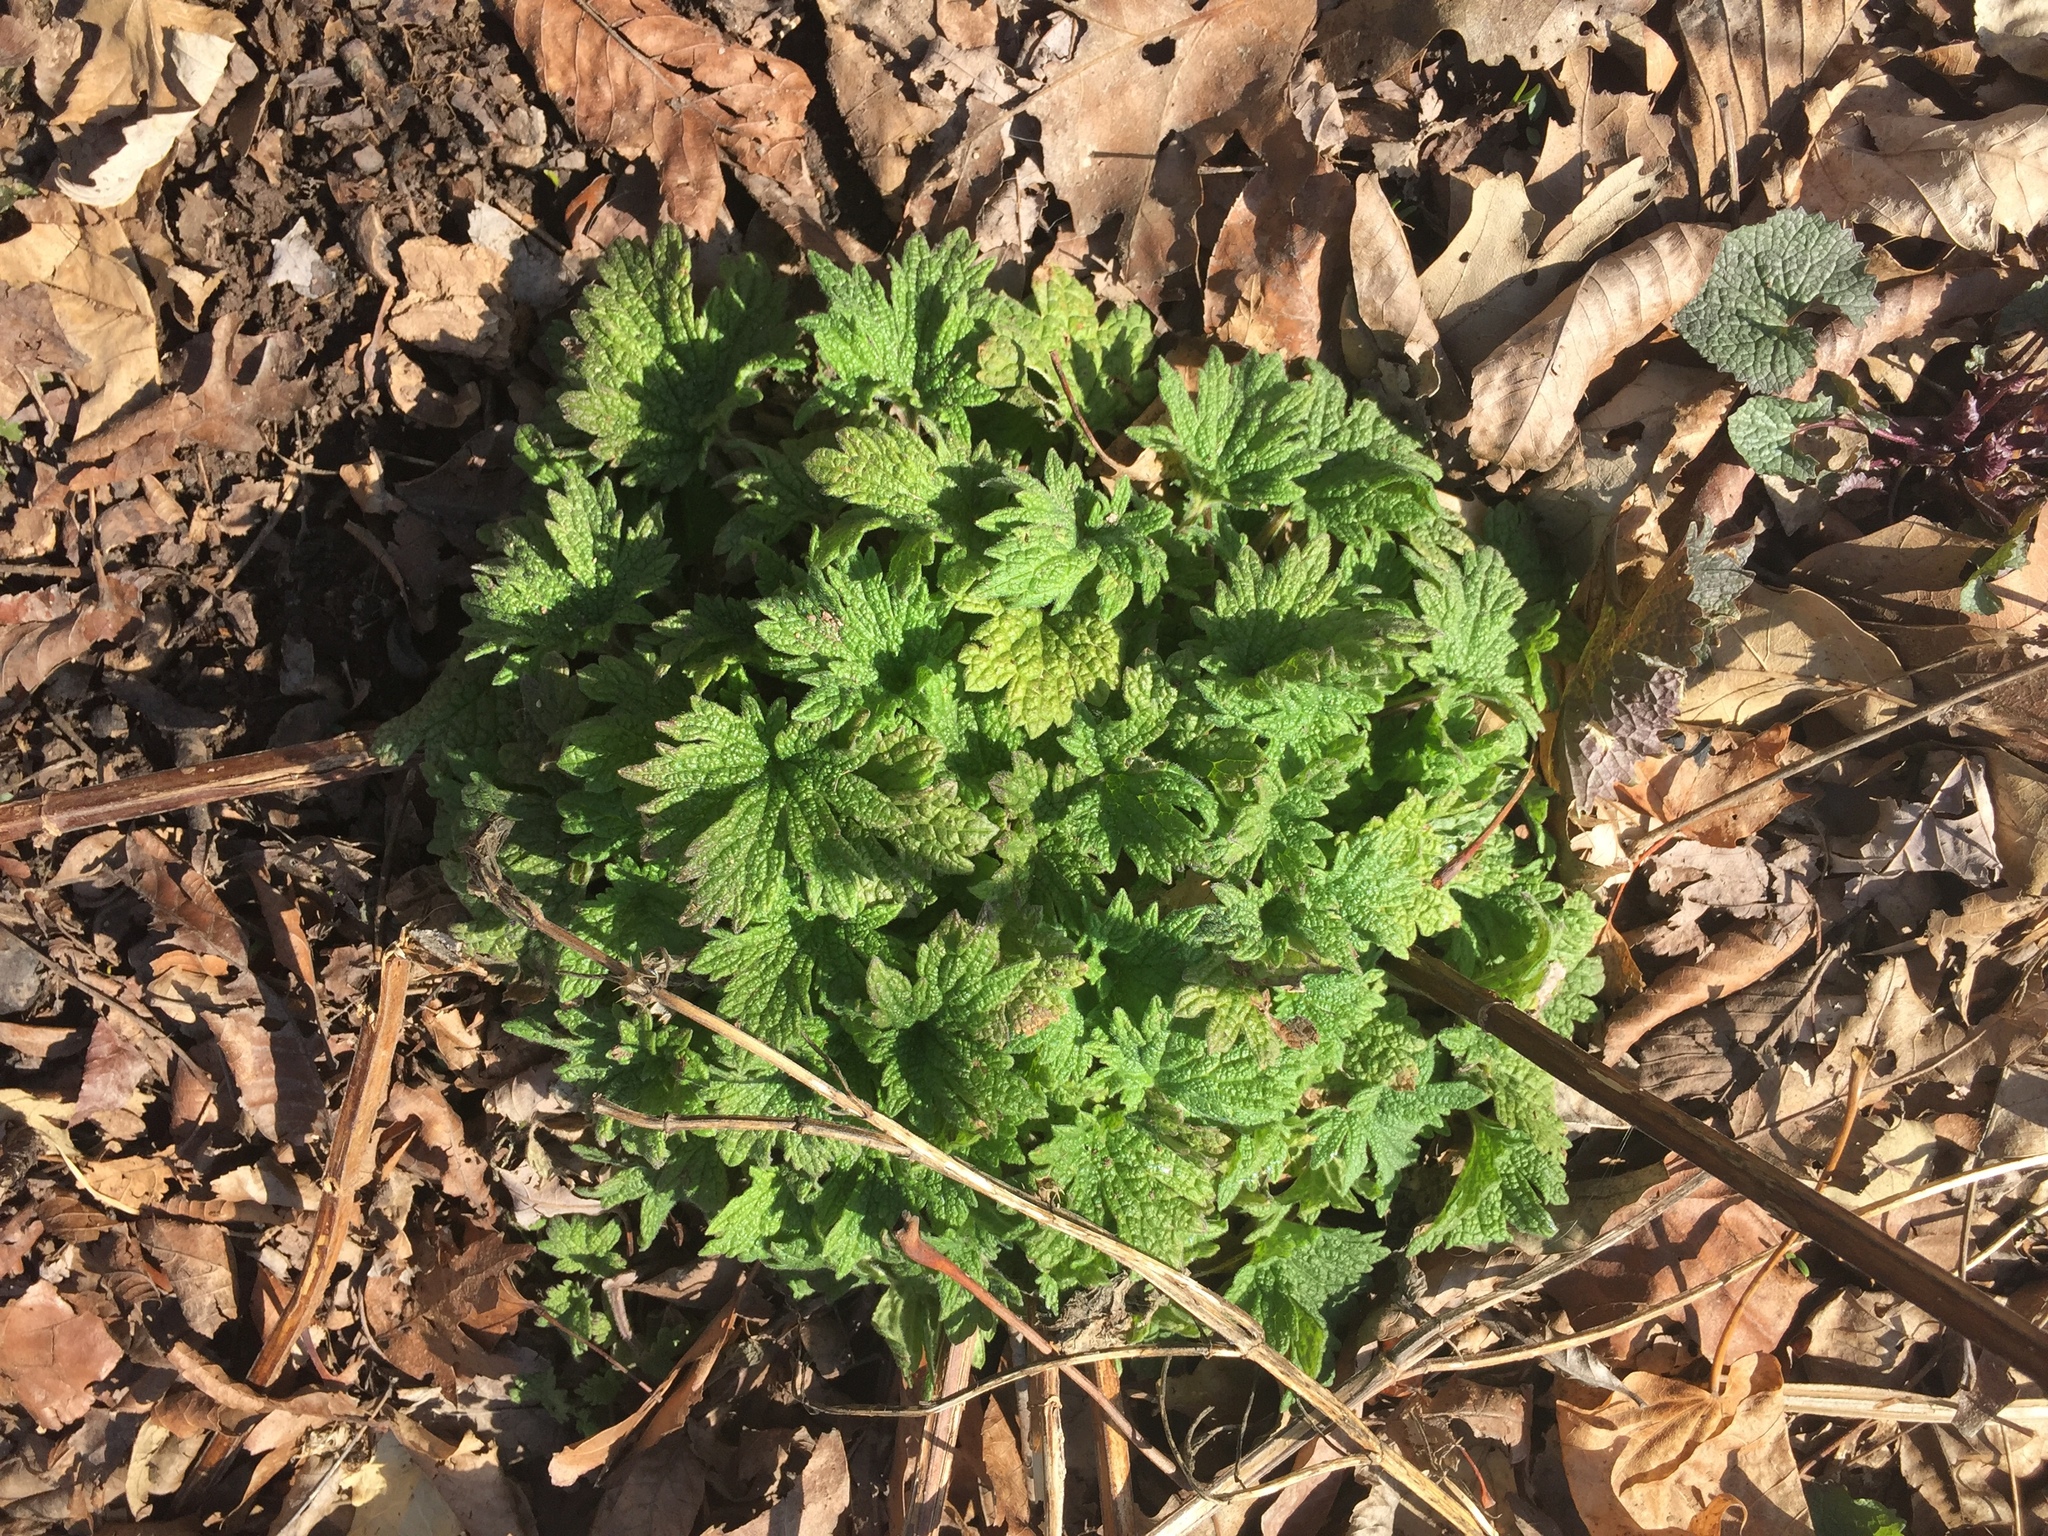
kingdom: Plantae
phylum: Tracheophyta
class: Magnoliopsida
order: Lamiales
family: Lamiaceae
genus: Leonurus
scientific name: Leonurus cardiaca
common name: Motherwort
